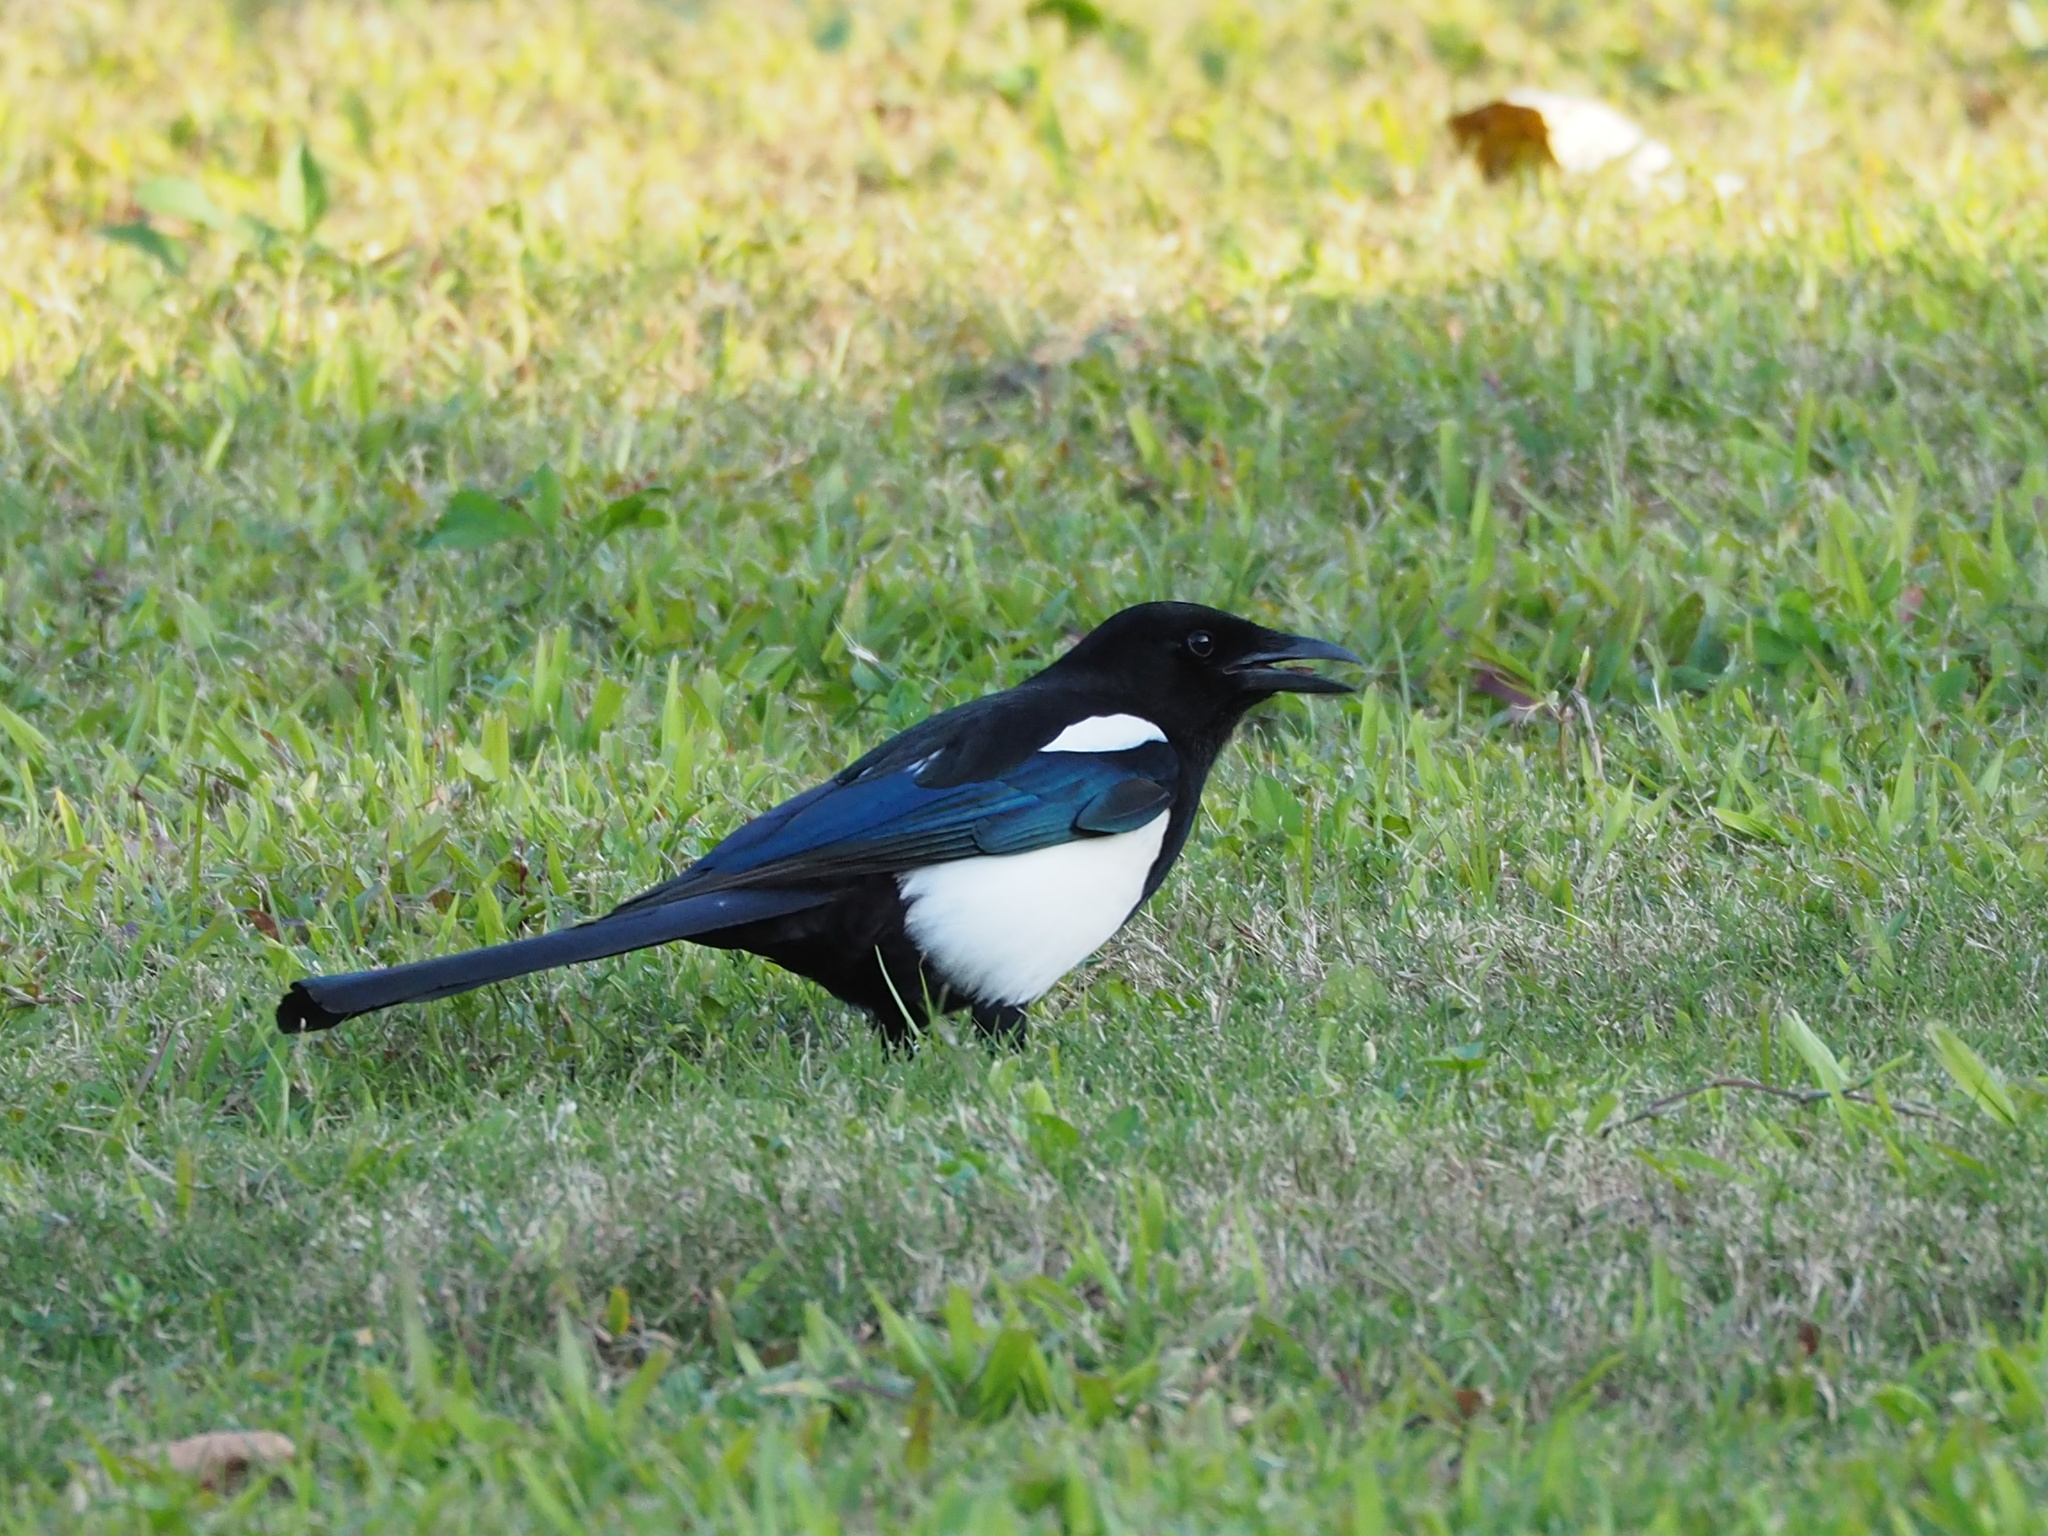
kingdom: Animalia
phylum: Chordata
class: Aves
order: Passeriformes
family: Corvidae
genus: Pica
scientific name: Pica serica
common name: Oriental magpie
